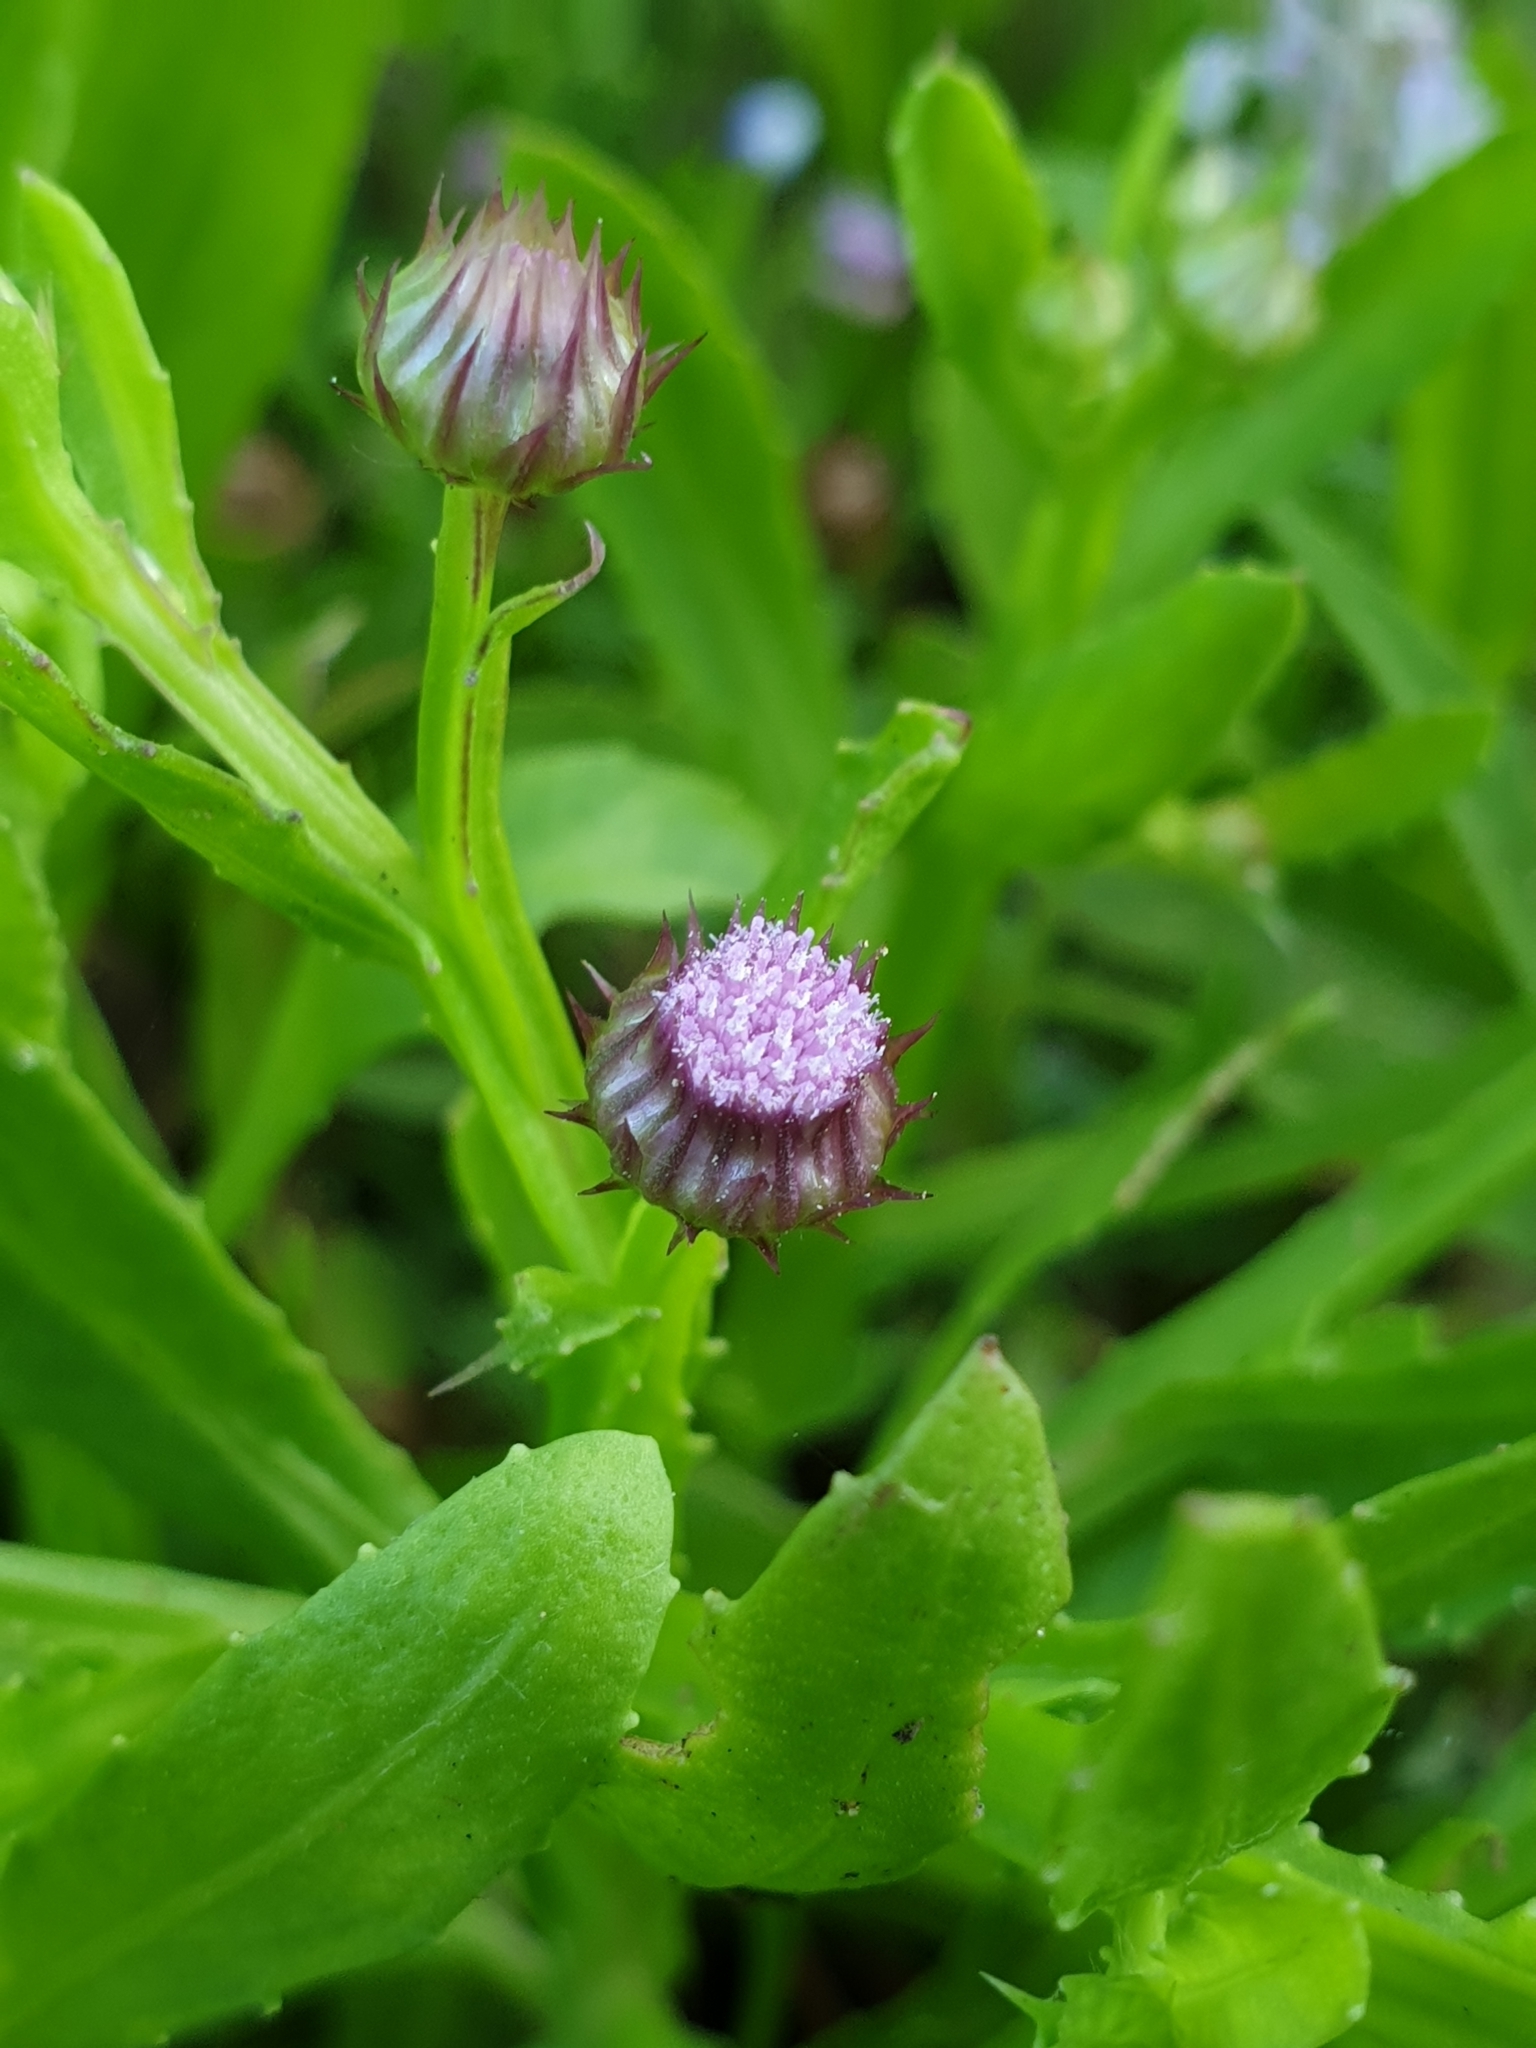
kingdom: Plantae
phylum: Tracheophyta
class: Magnoliopsida
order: Asterales
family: Asteraceae
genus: Epaltes
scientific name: Epaltes divaricata
